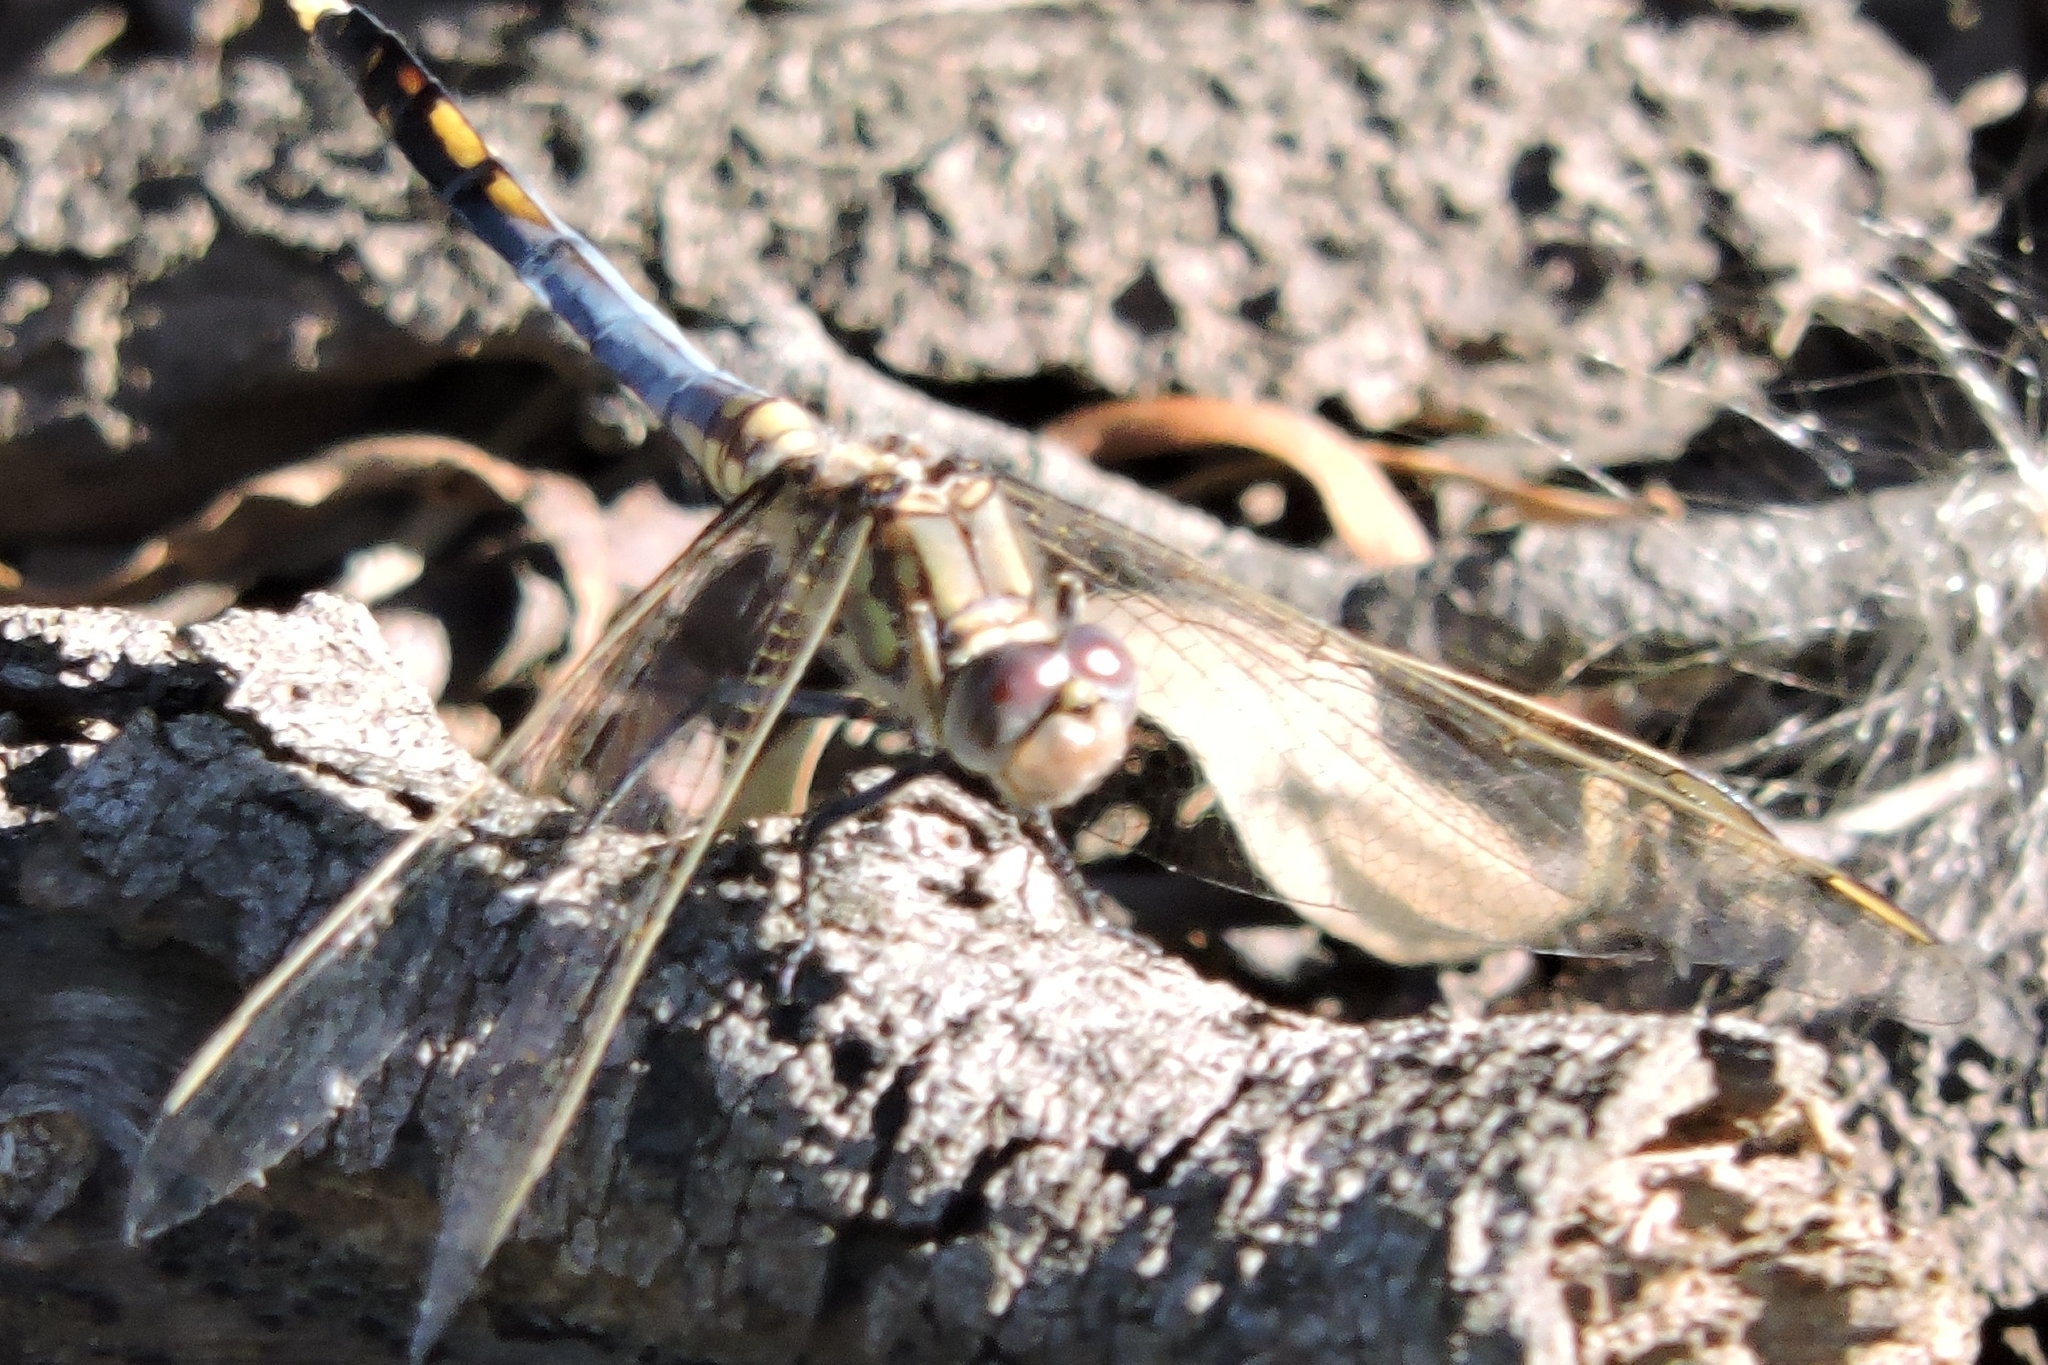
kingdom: Animalia
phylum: Arthropoda
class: Insecta
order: Odonata
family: Libellulidae
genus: Orthetrum
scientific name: Orthetrum caledonicum
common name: Blue skimmer
